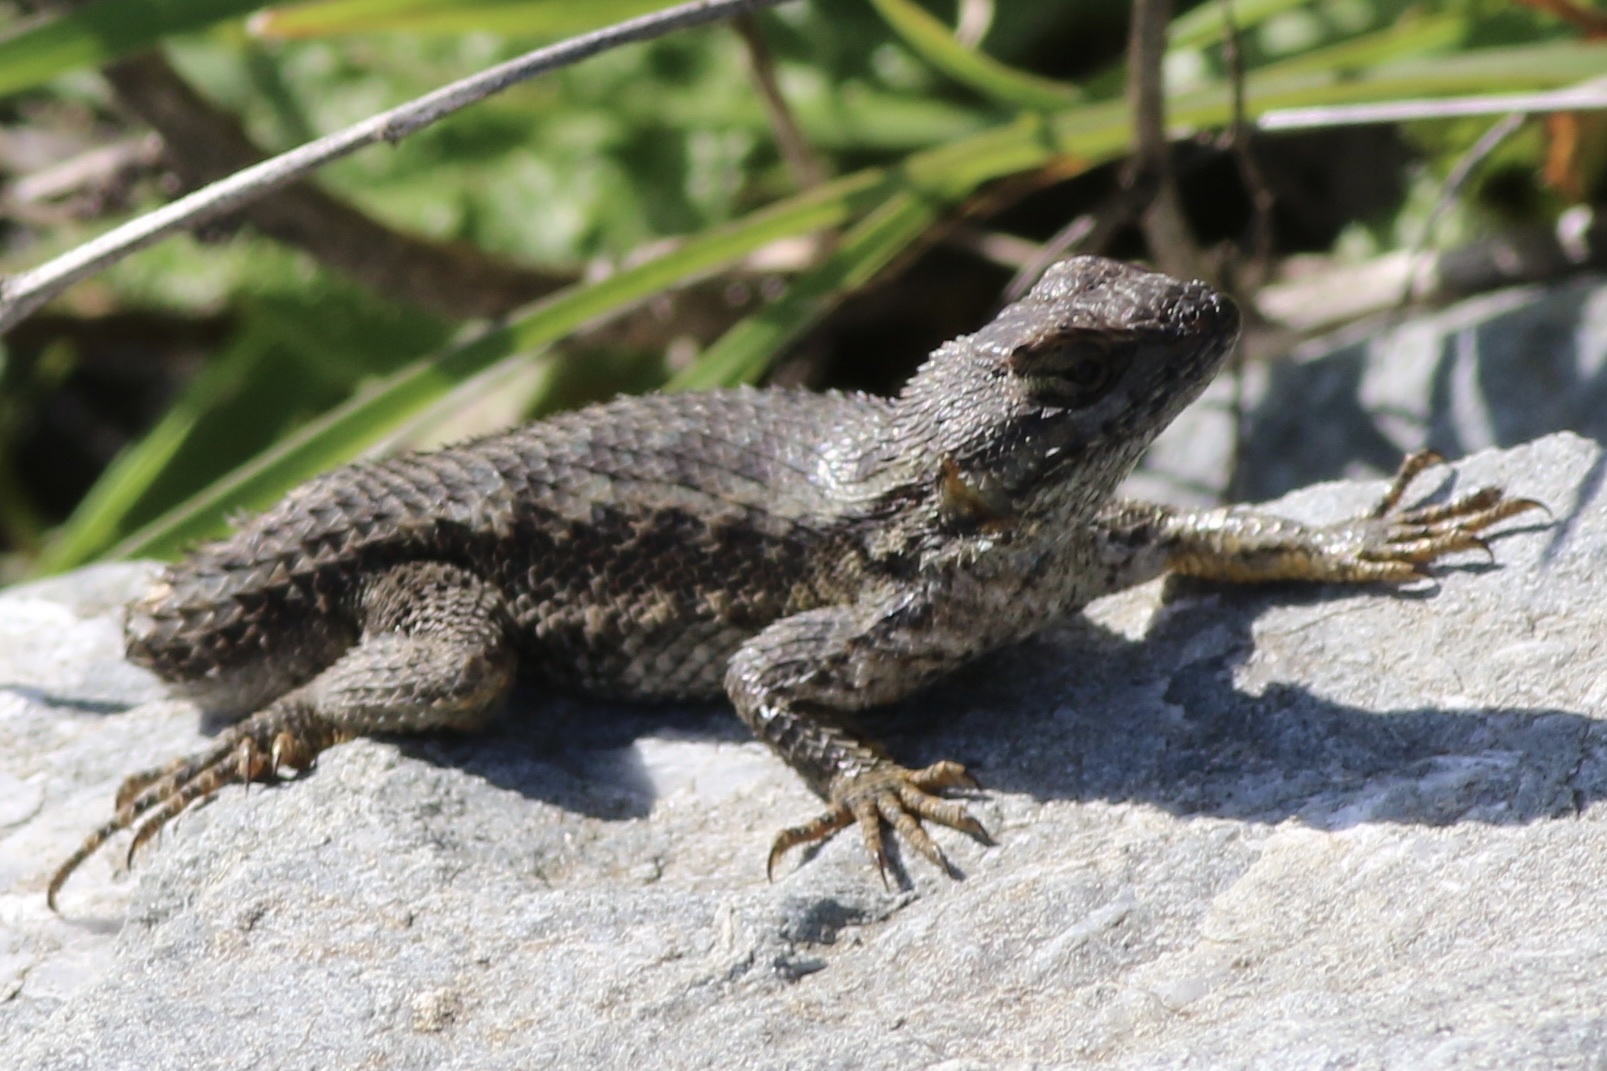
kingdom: Animalia
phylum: Chordata
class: Squamata
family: Phrynosomatidae
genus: Sceloporus
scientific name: Sceloporus occidentalis
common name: Western fence lizard
